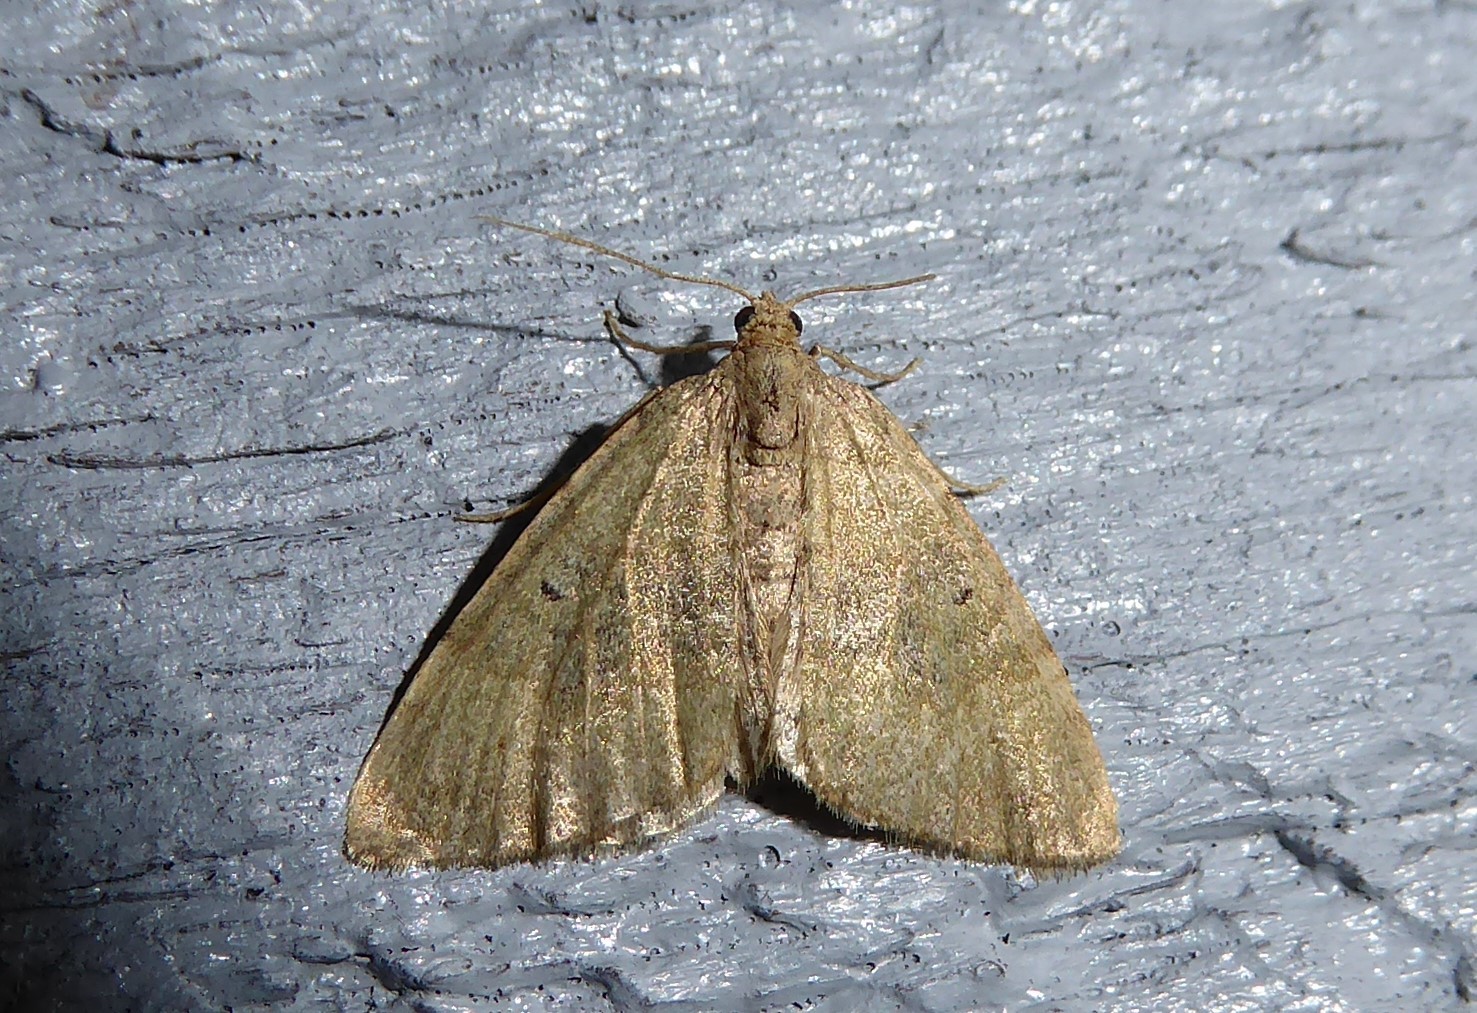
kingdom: Animalia
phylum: Arthropoda
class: Insecta
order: Lepidoptera
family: Geometridae
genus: Epyaxa
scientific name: Epyaxa rosearia
